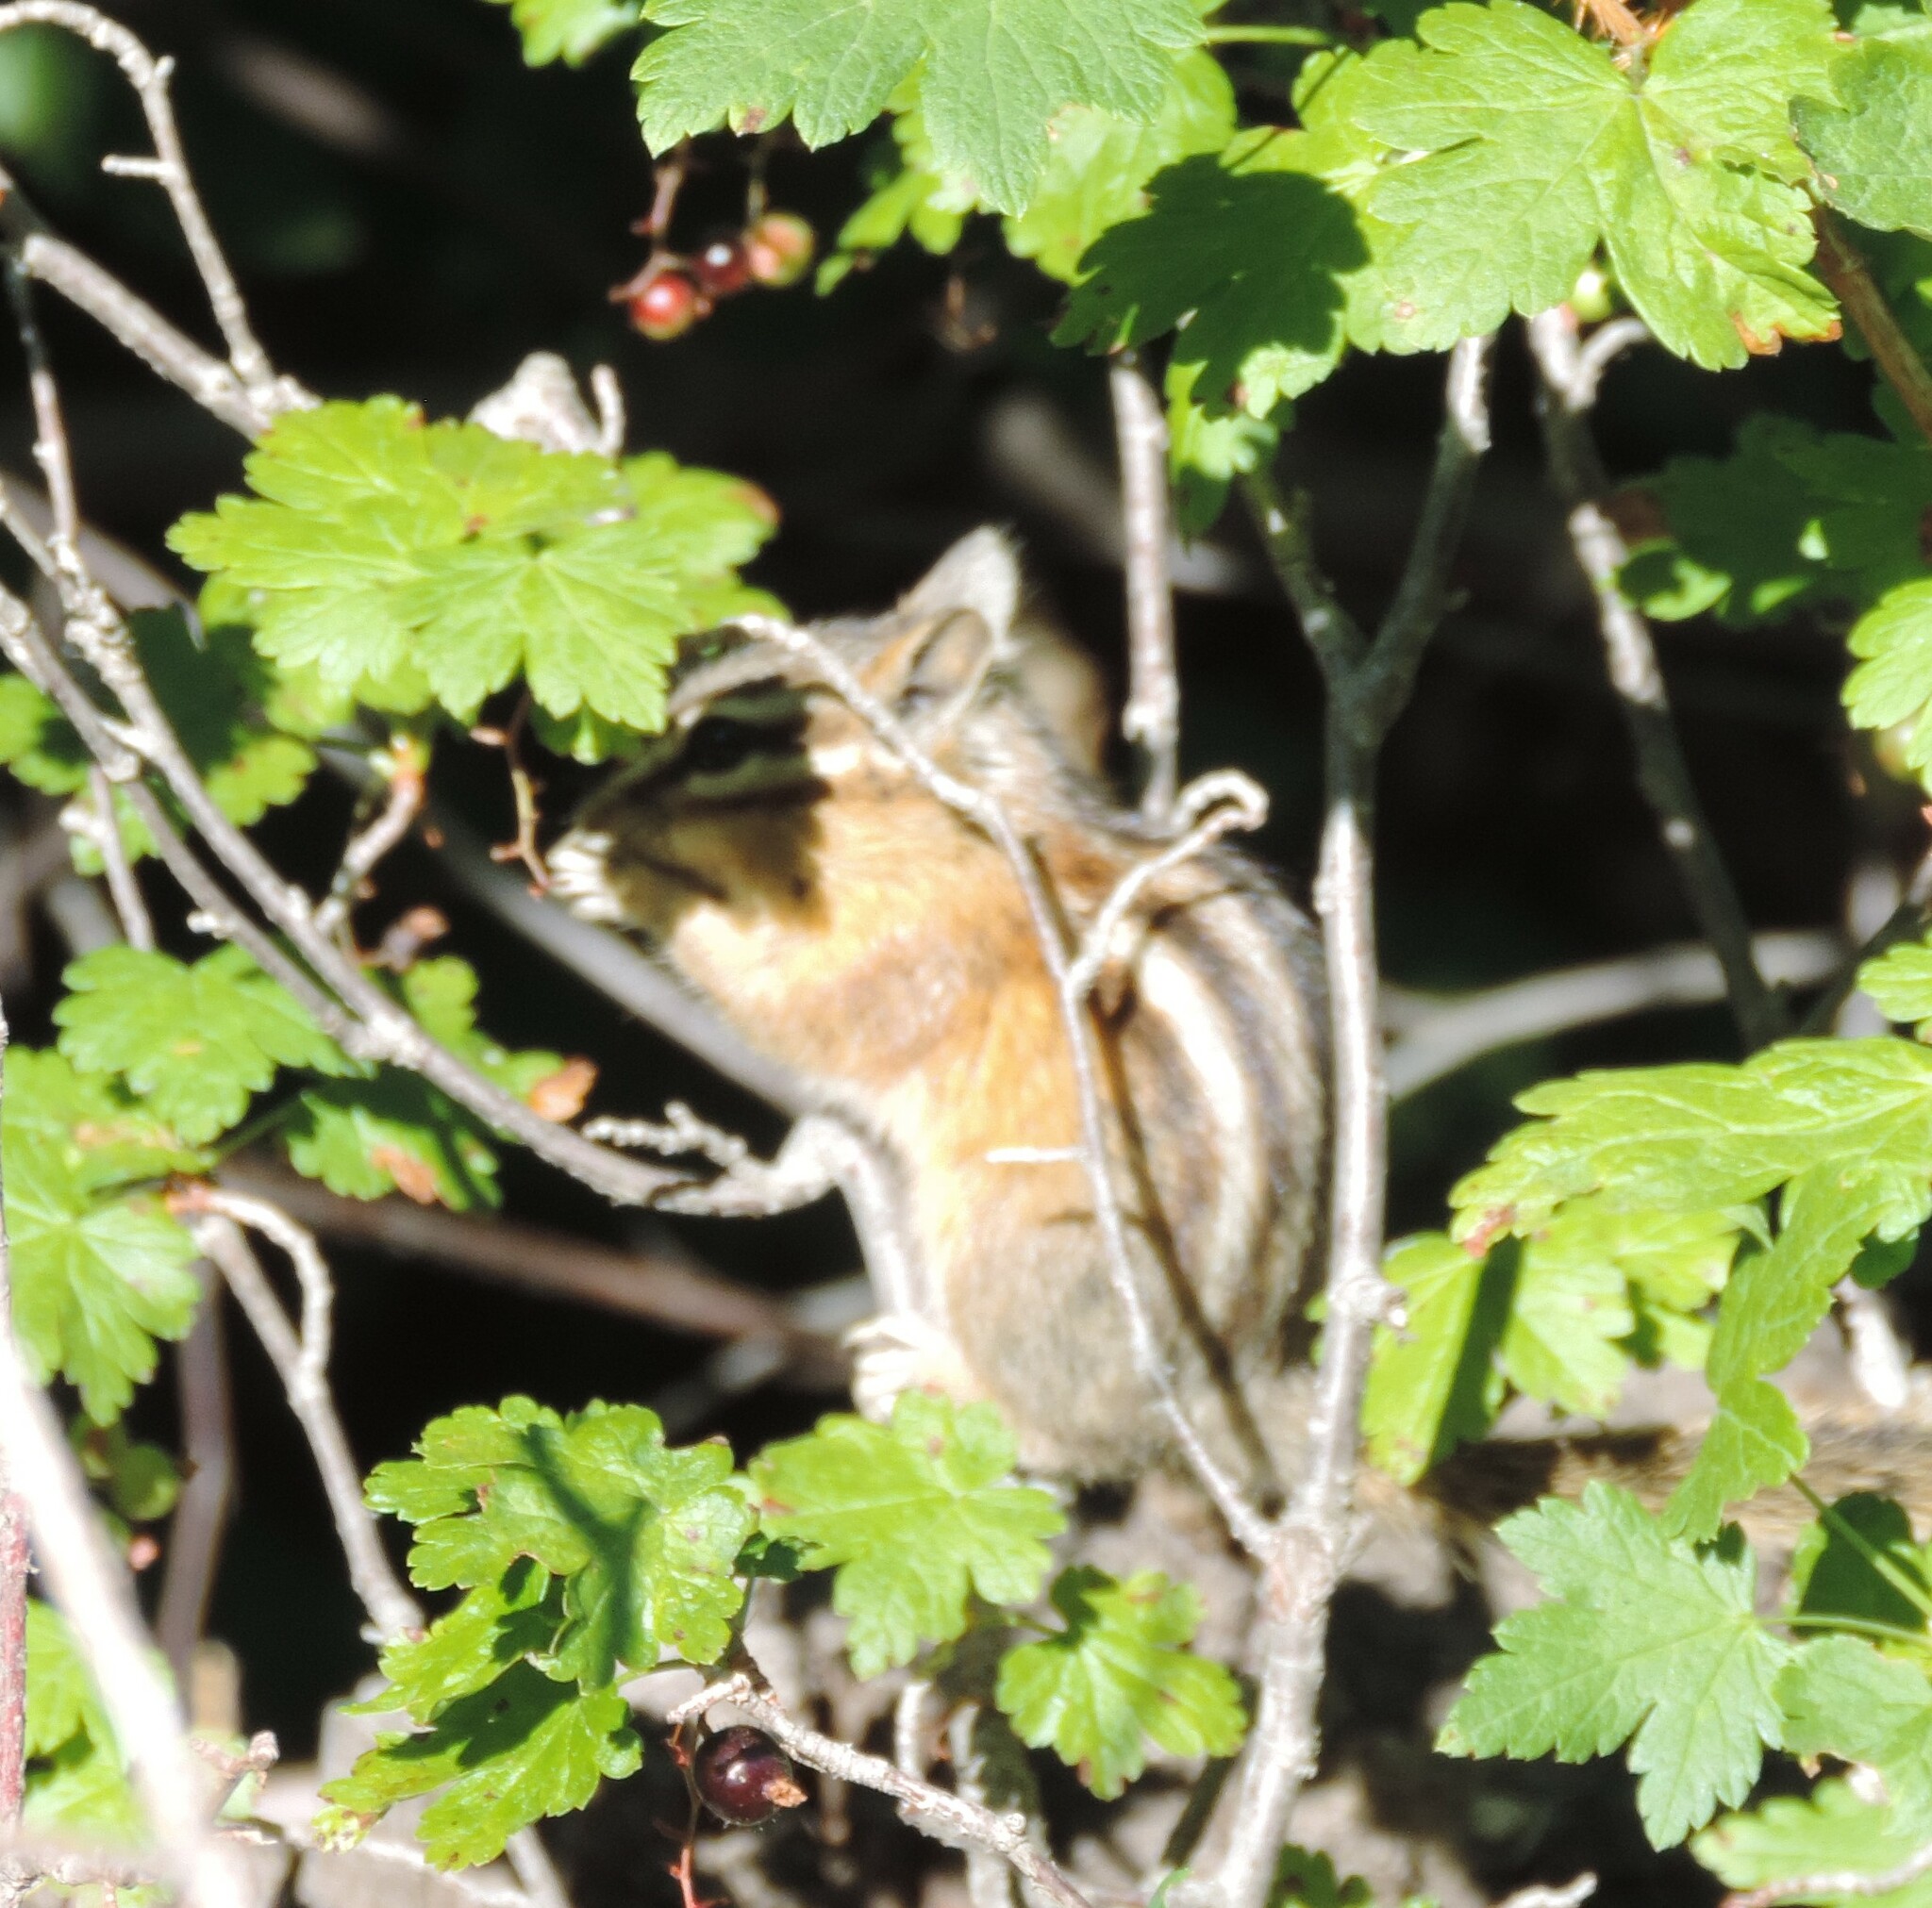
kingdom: Animalia
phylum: Chordata
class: Mammalia
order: Rodentia
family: Sciuridae
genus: Tamias
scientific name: Tamias amoenus
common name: Yellow-pine chipmunk
